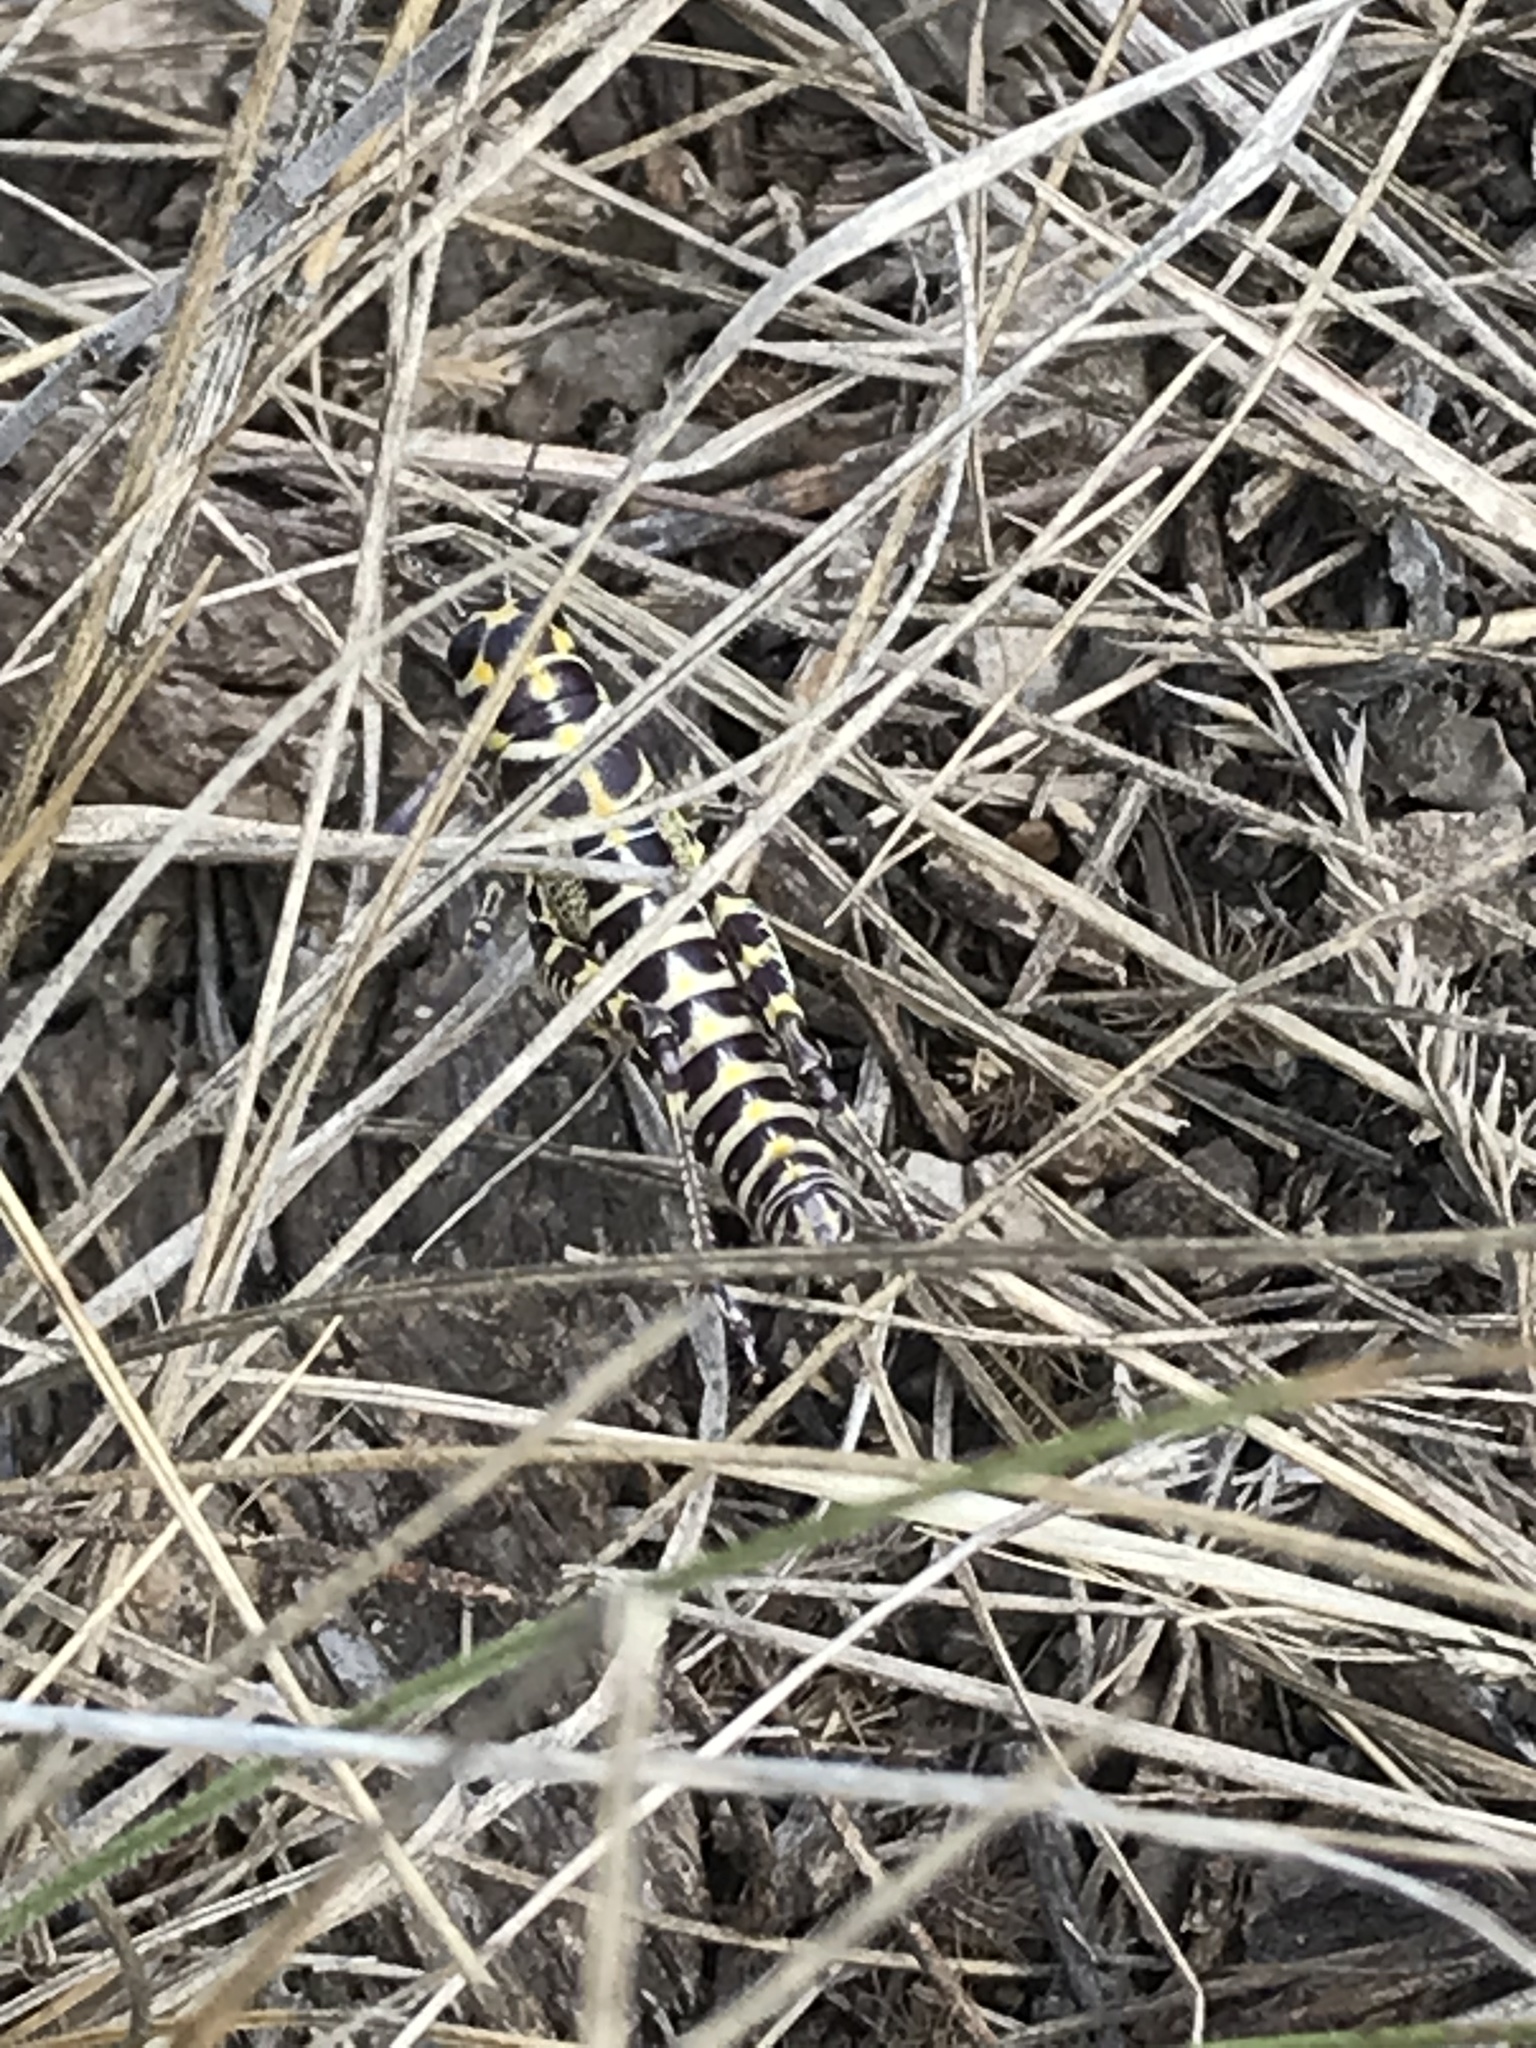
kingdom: Animalia
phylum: Arthropoda
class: Insecta
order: Orthoptera
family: Acrididae
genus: Dactylotum
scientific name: Dactylotum bicolor
